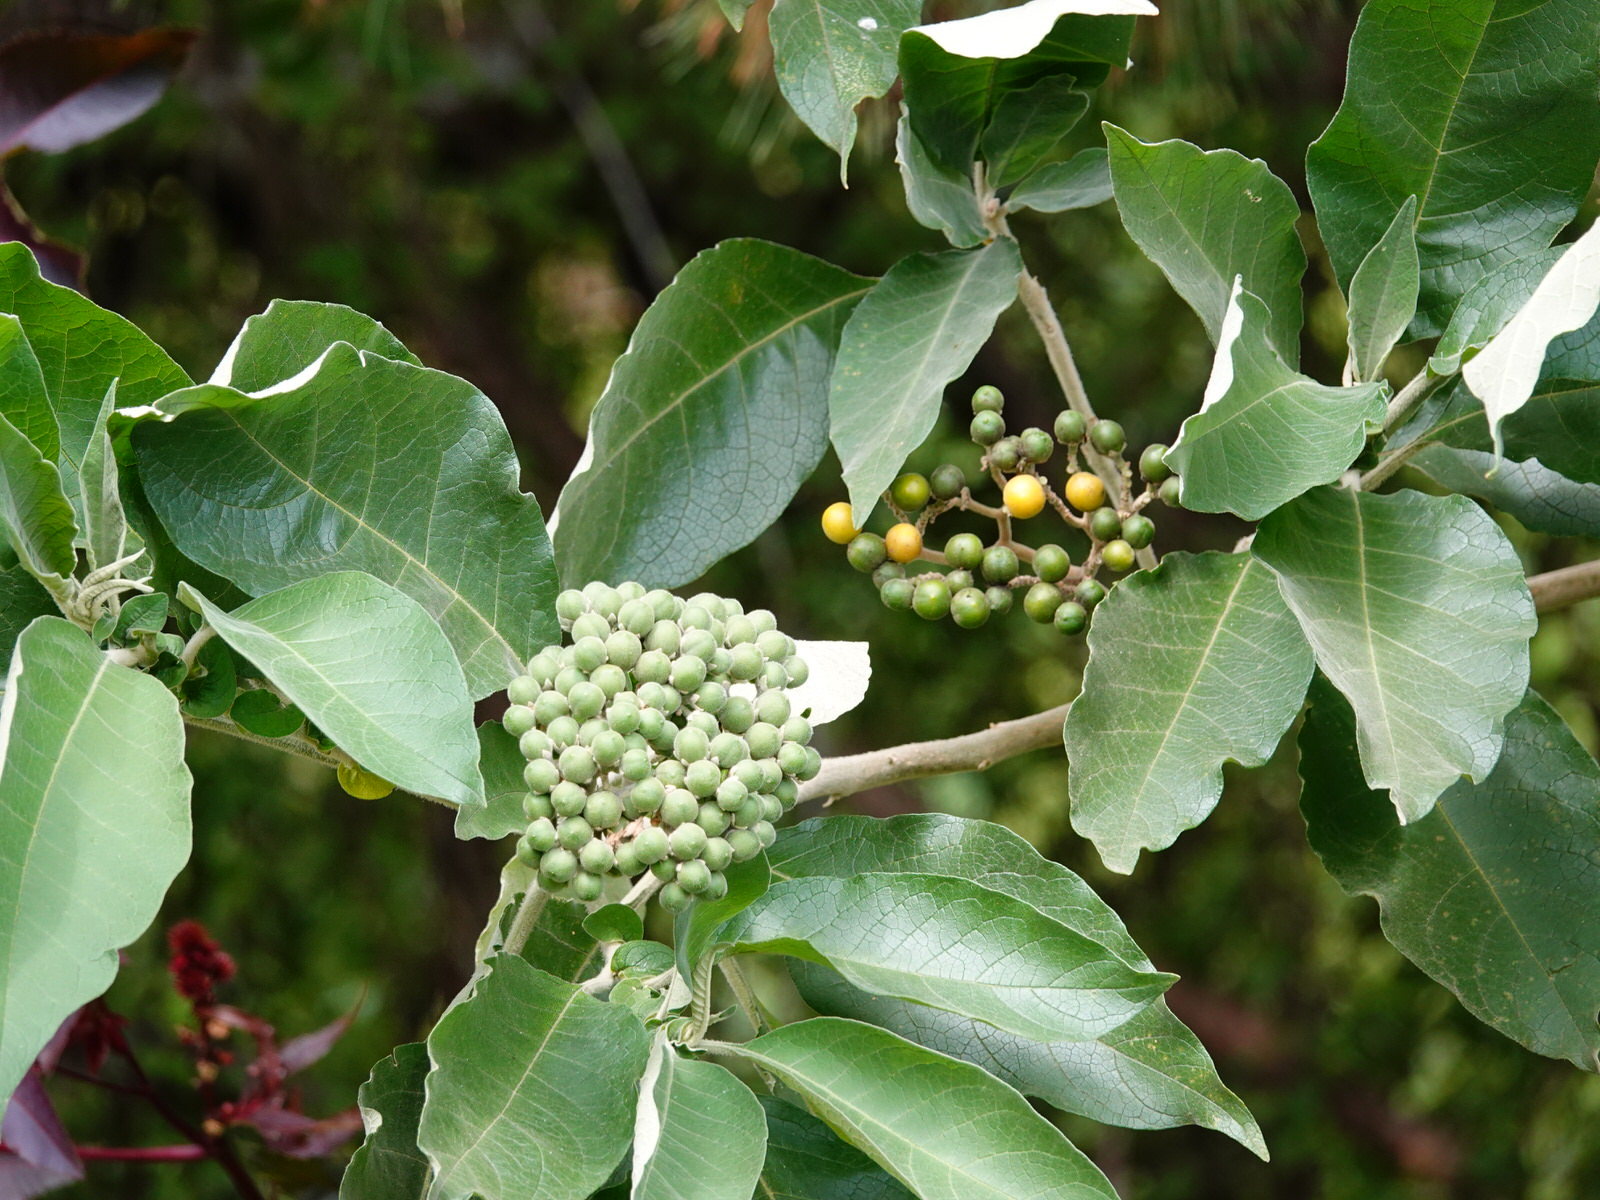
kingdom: Plantae
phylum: Tracheophyta
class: Magnoliopsida
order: Solanales
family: Solanaceae
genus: Solanum
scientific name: Solanum mauritianum
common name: Earleaf nightshade
